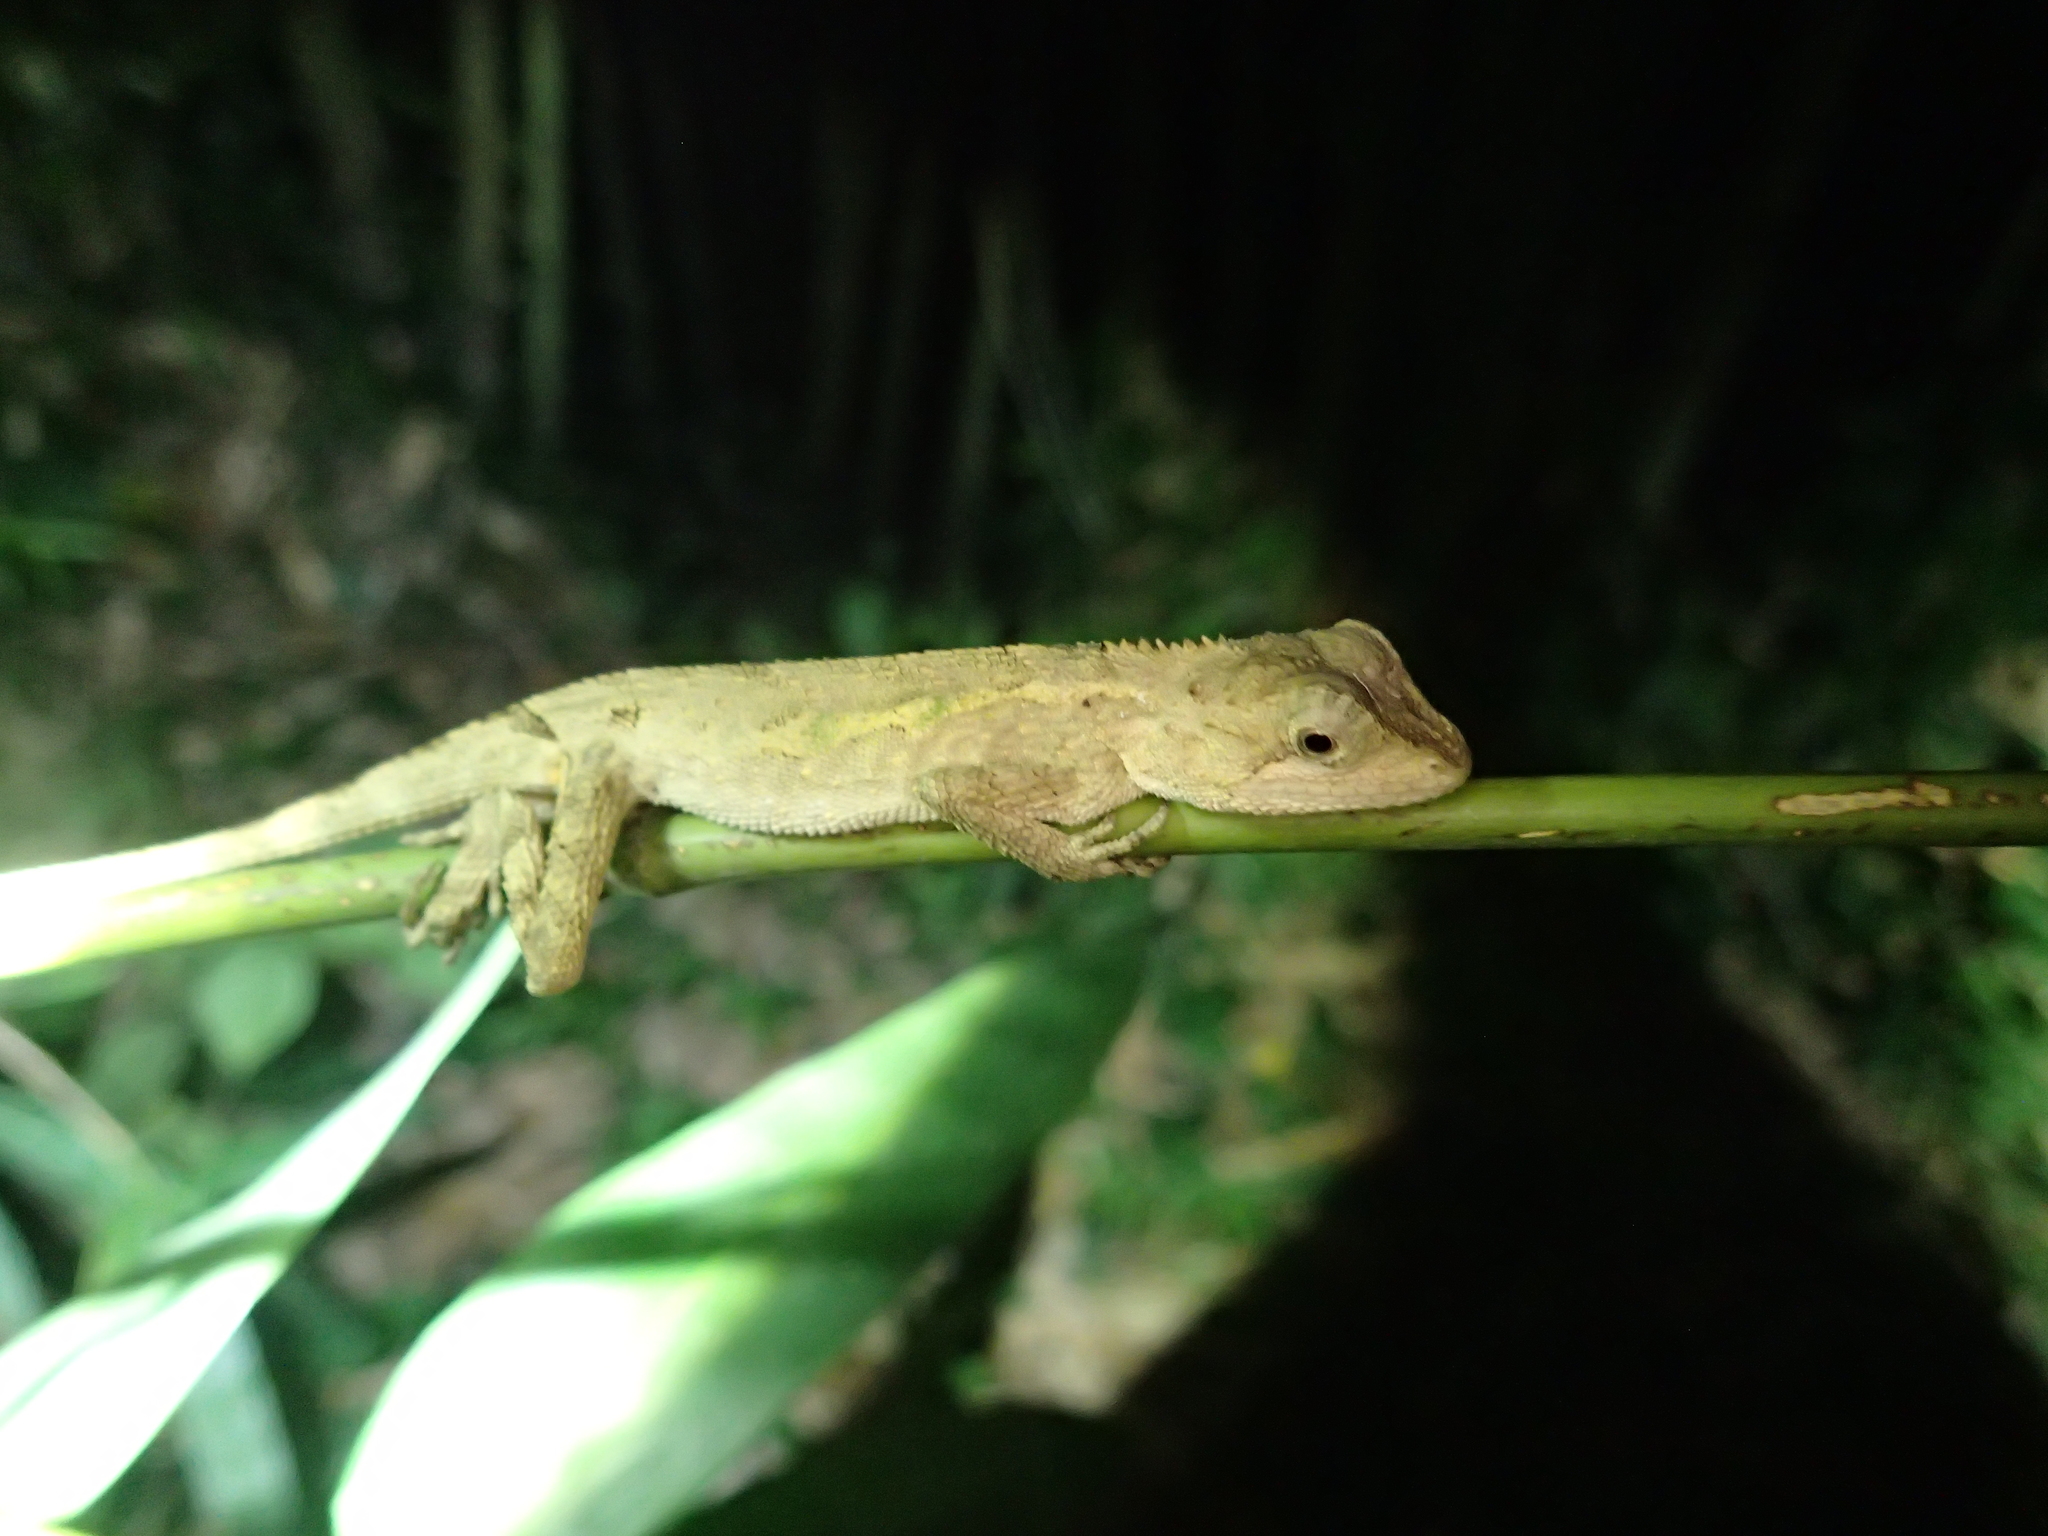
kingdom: Animalia
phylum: Chordata
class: Squamata
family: Agamidae
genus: Diploderma
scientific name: Diploderma swinhonis
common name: Taiwan japalure
